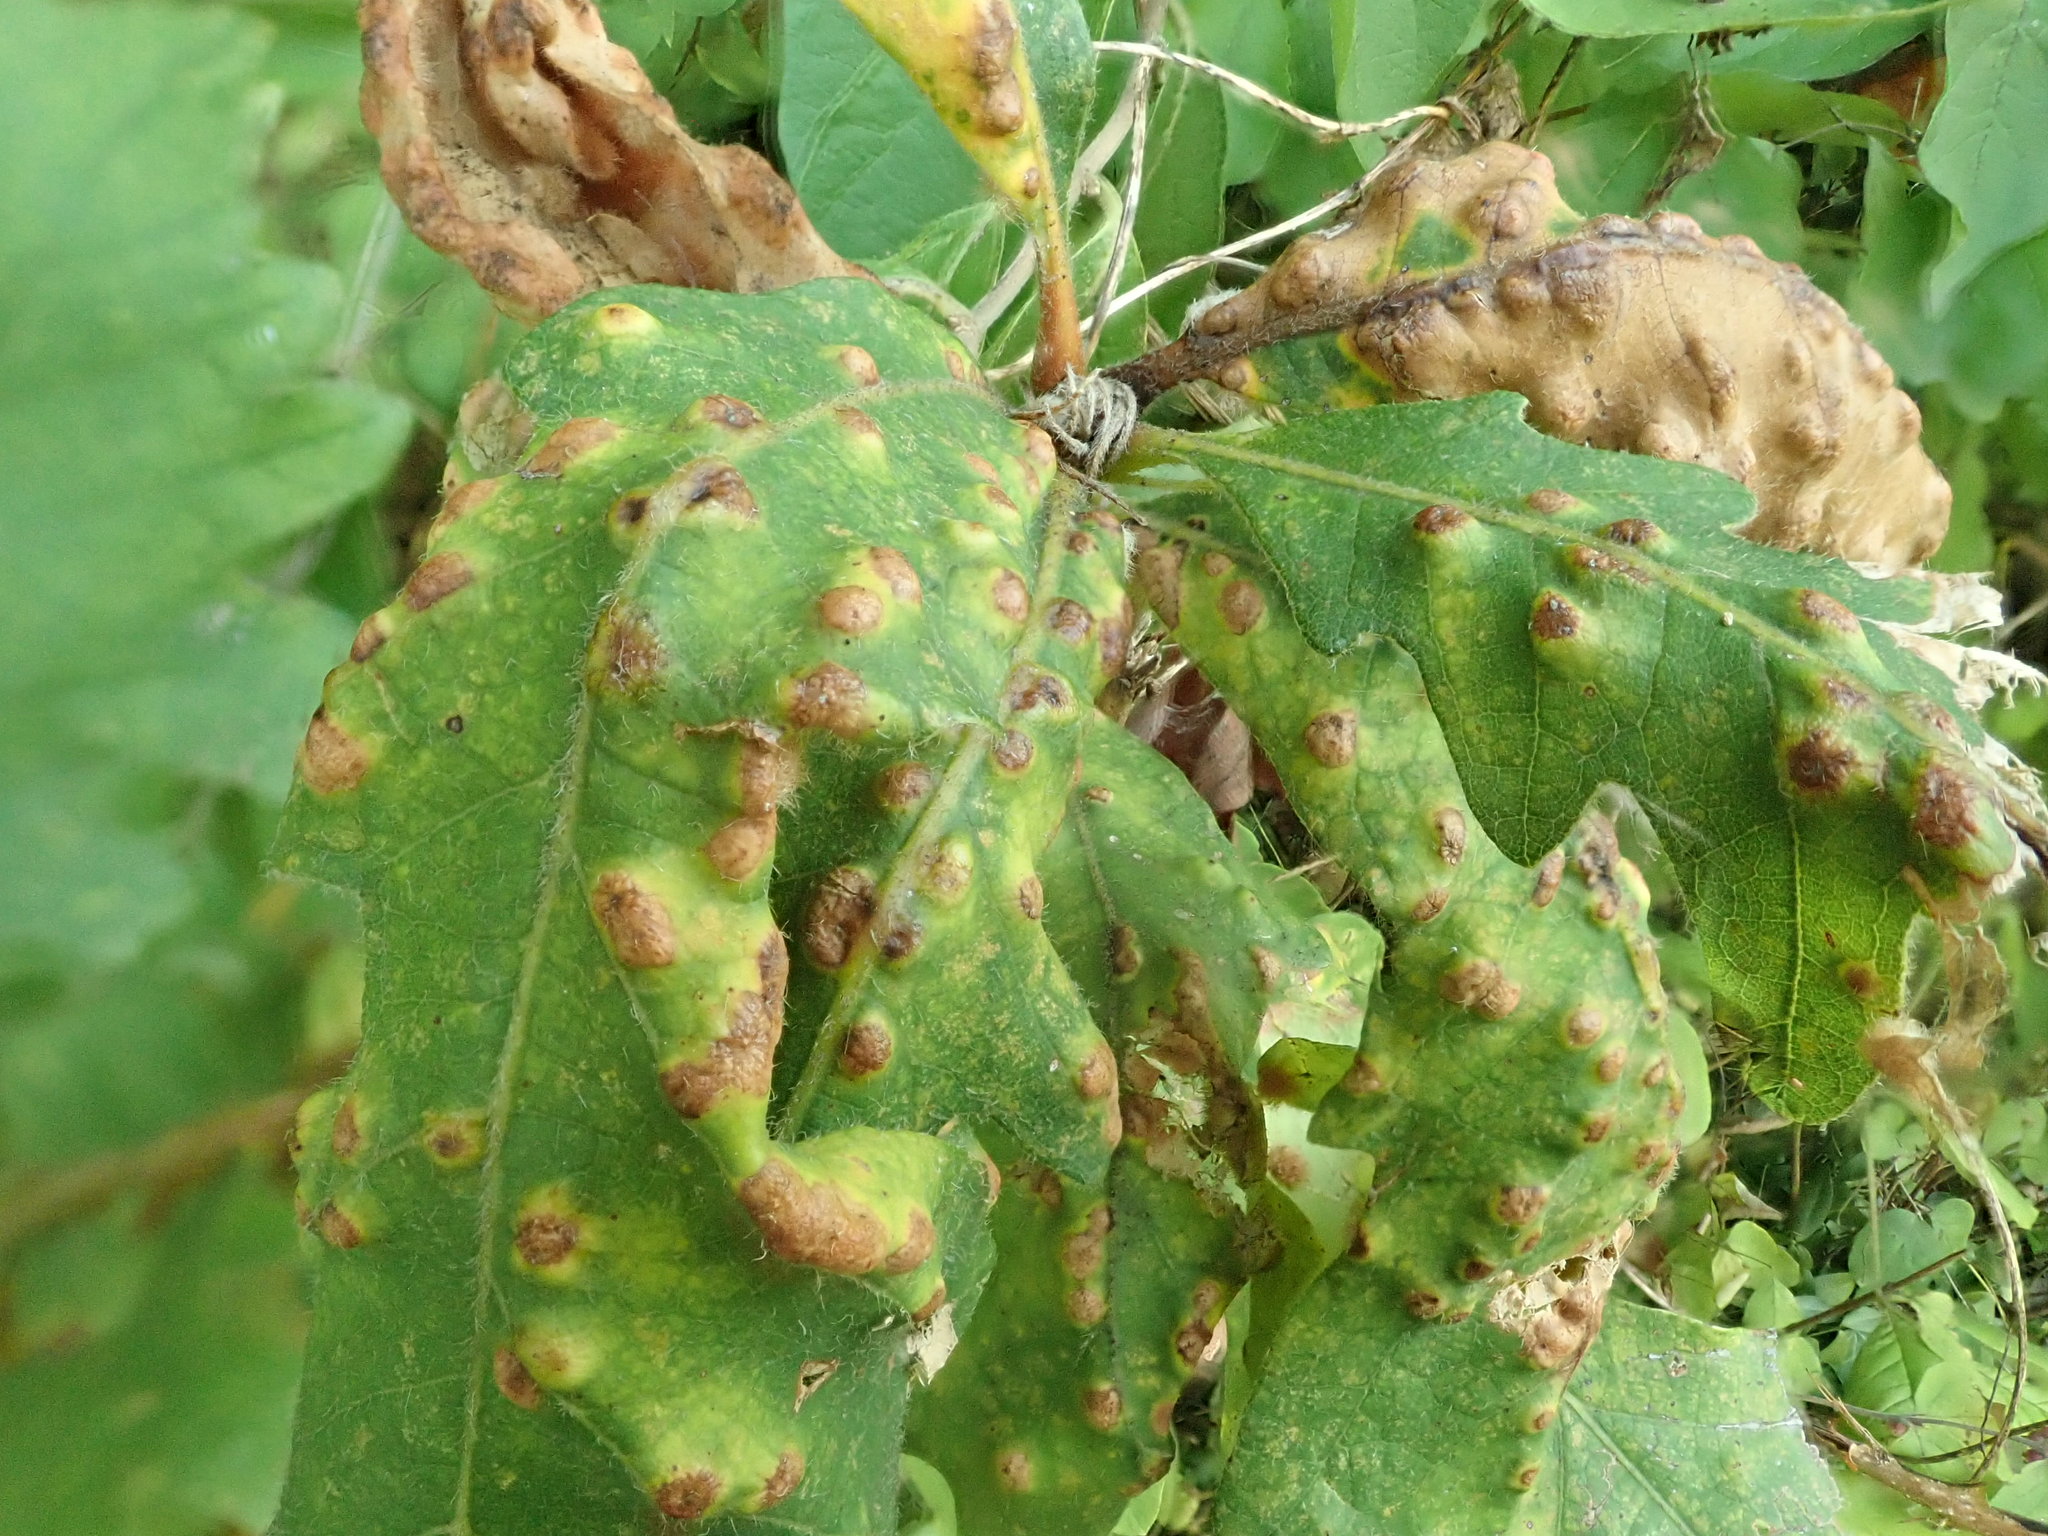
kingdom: Animalia
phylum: Arthropoda
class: Insecta
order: Hymenoptera
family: Cynipidae
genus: Neuroterus
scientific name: Neuroterus quercusverrucarum
